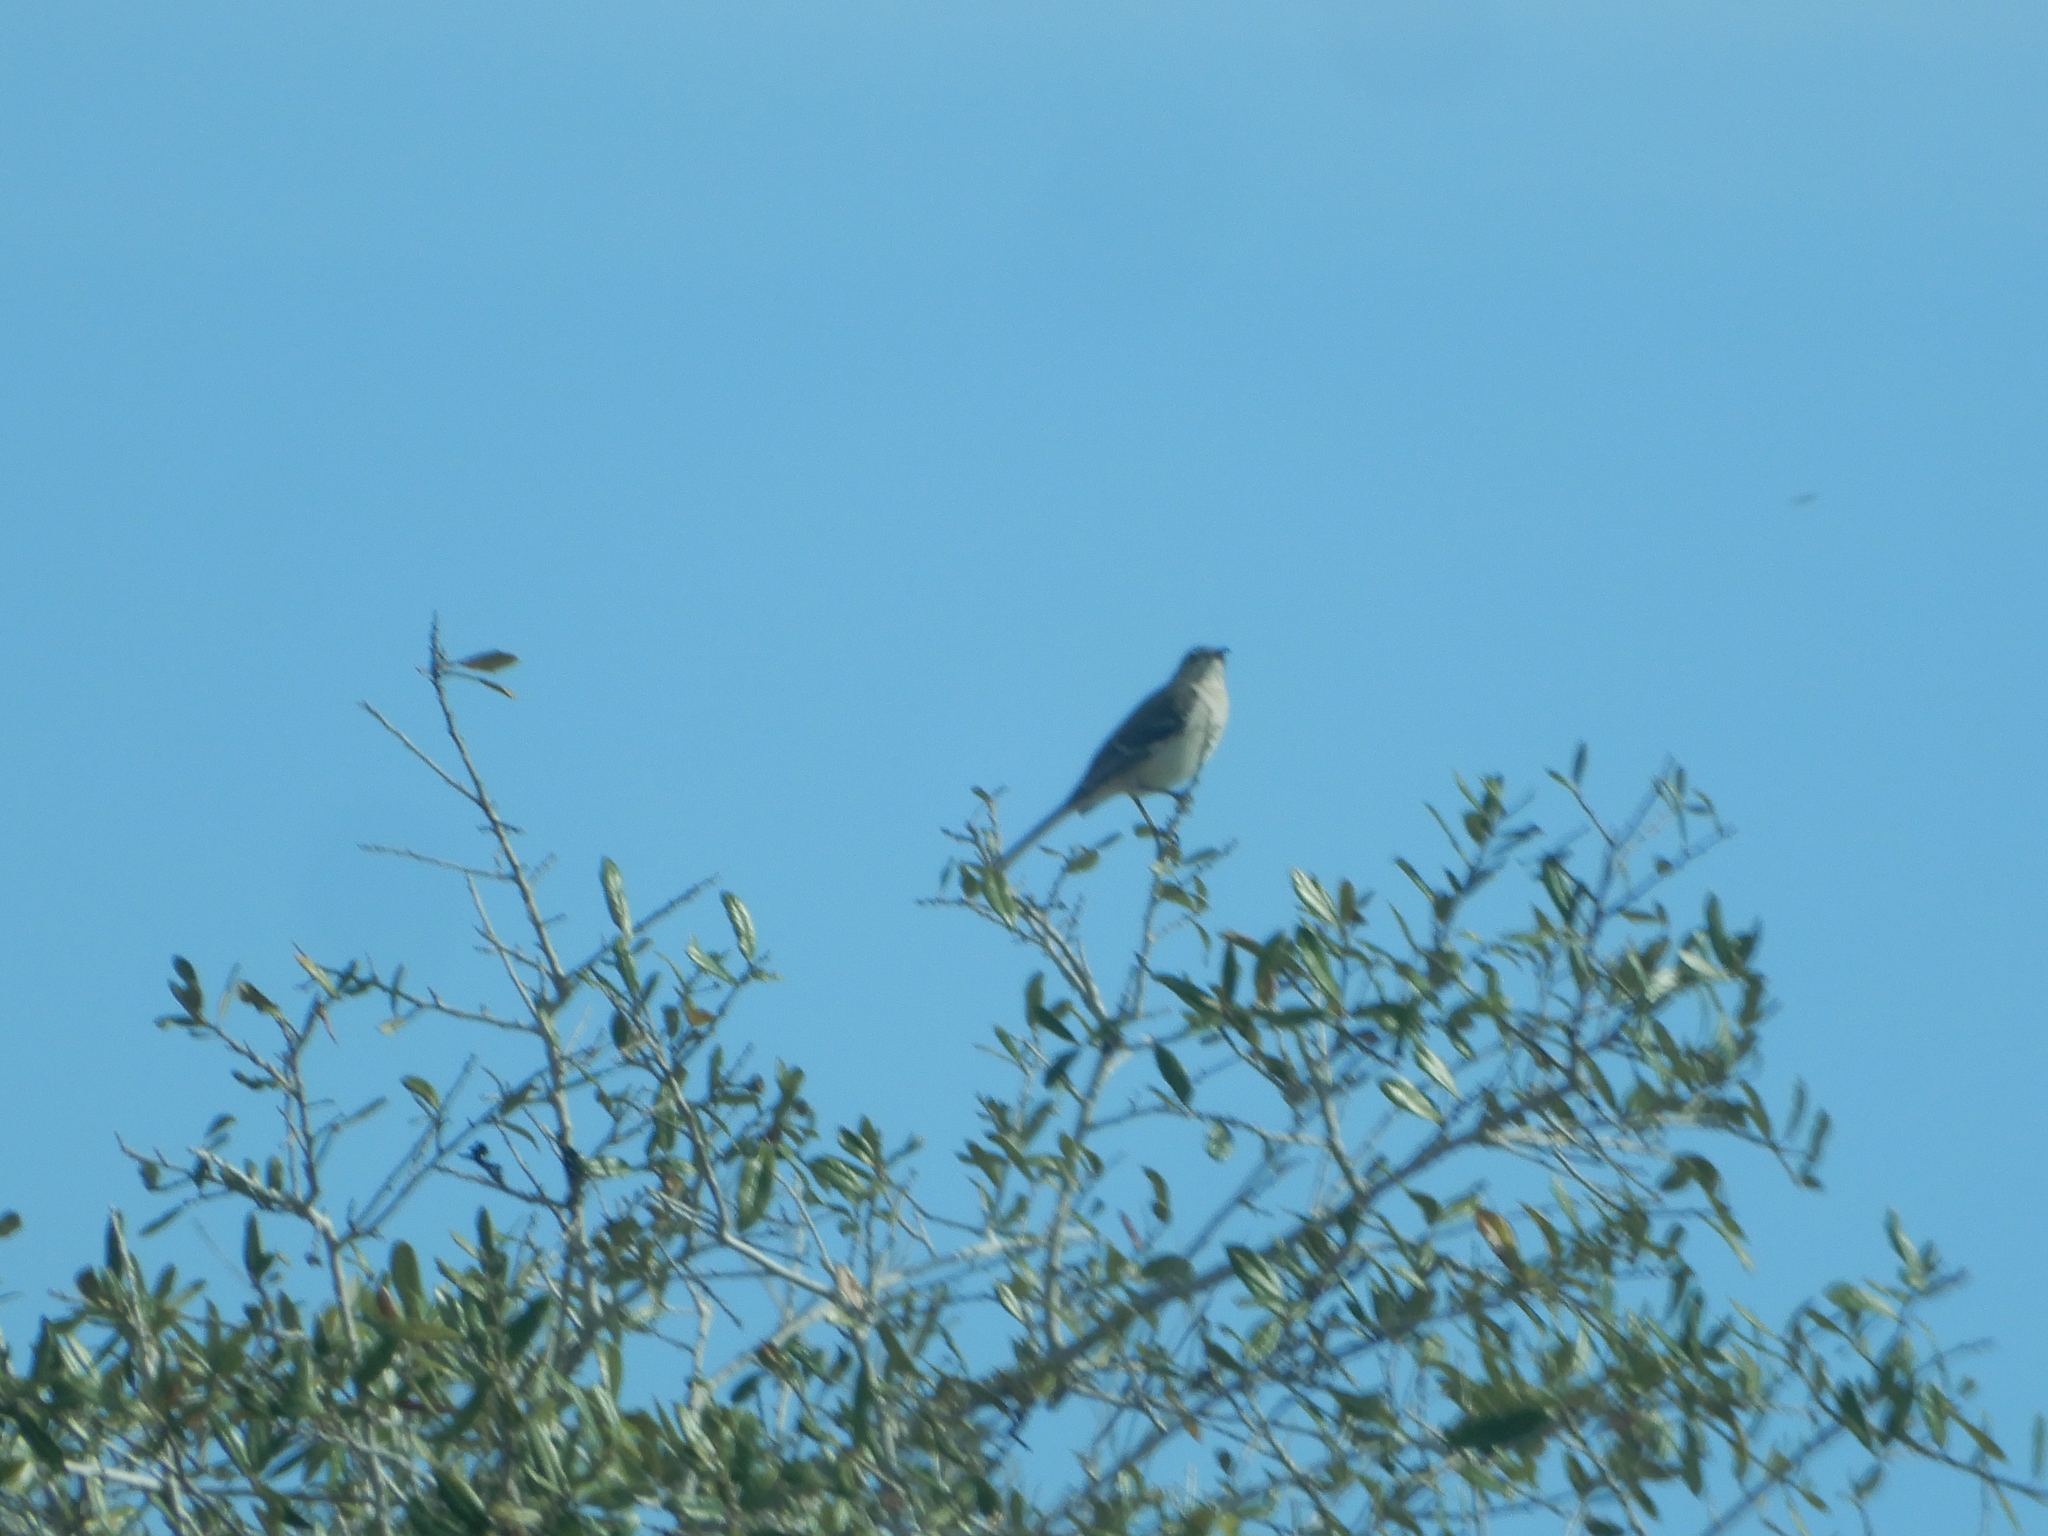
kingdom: Animalia
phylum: Chordata
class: Aves
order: Passeriformes
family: Mimidae
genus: Mimus
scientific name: Mimus polyglottos
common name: Northern mockingbird
